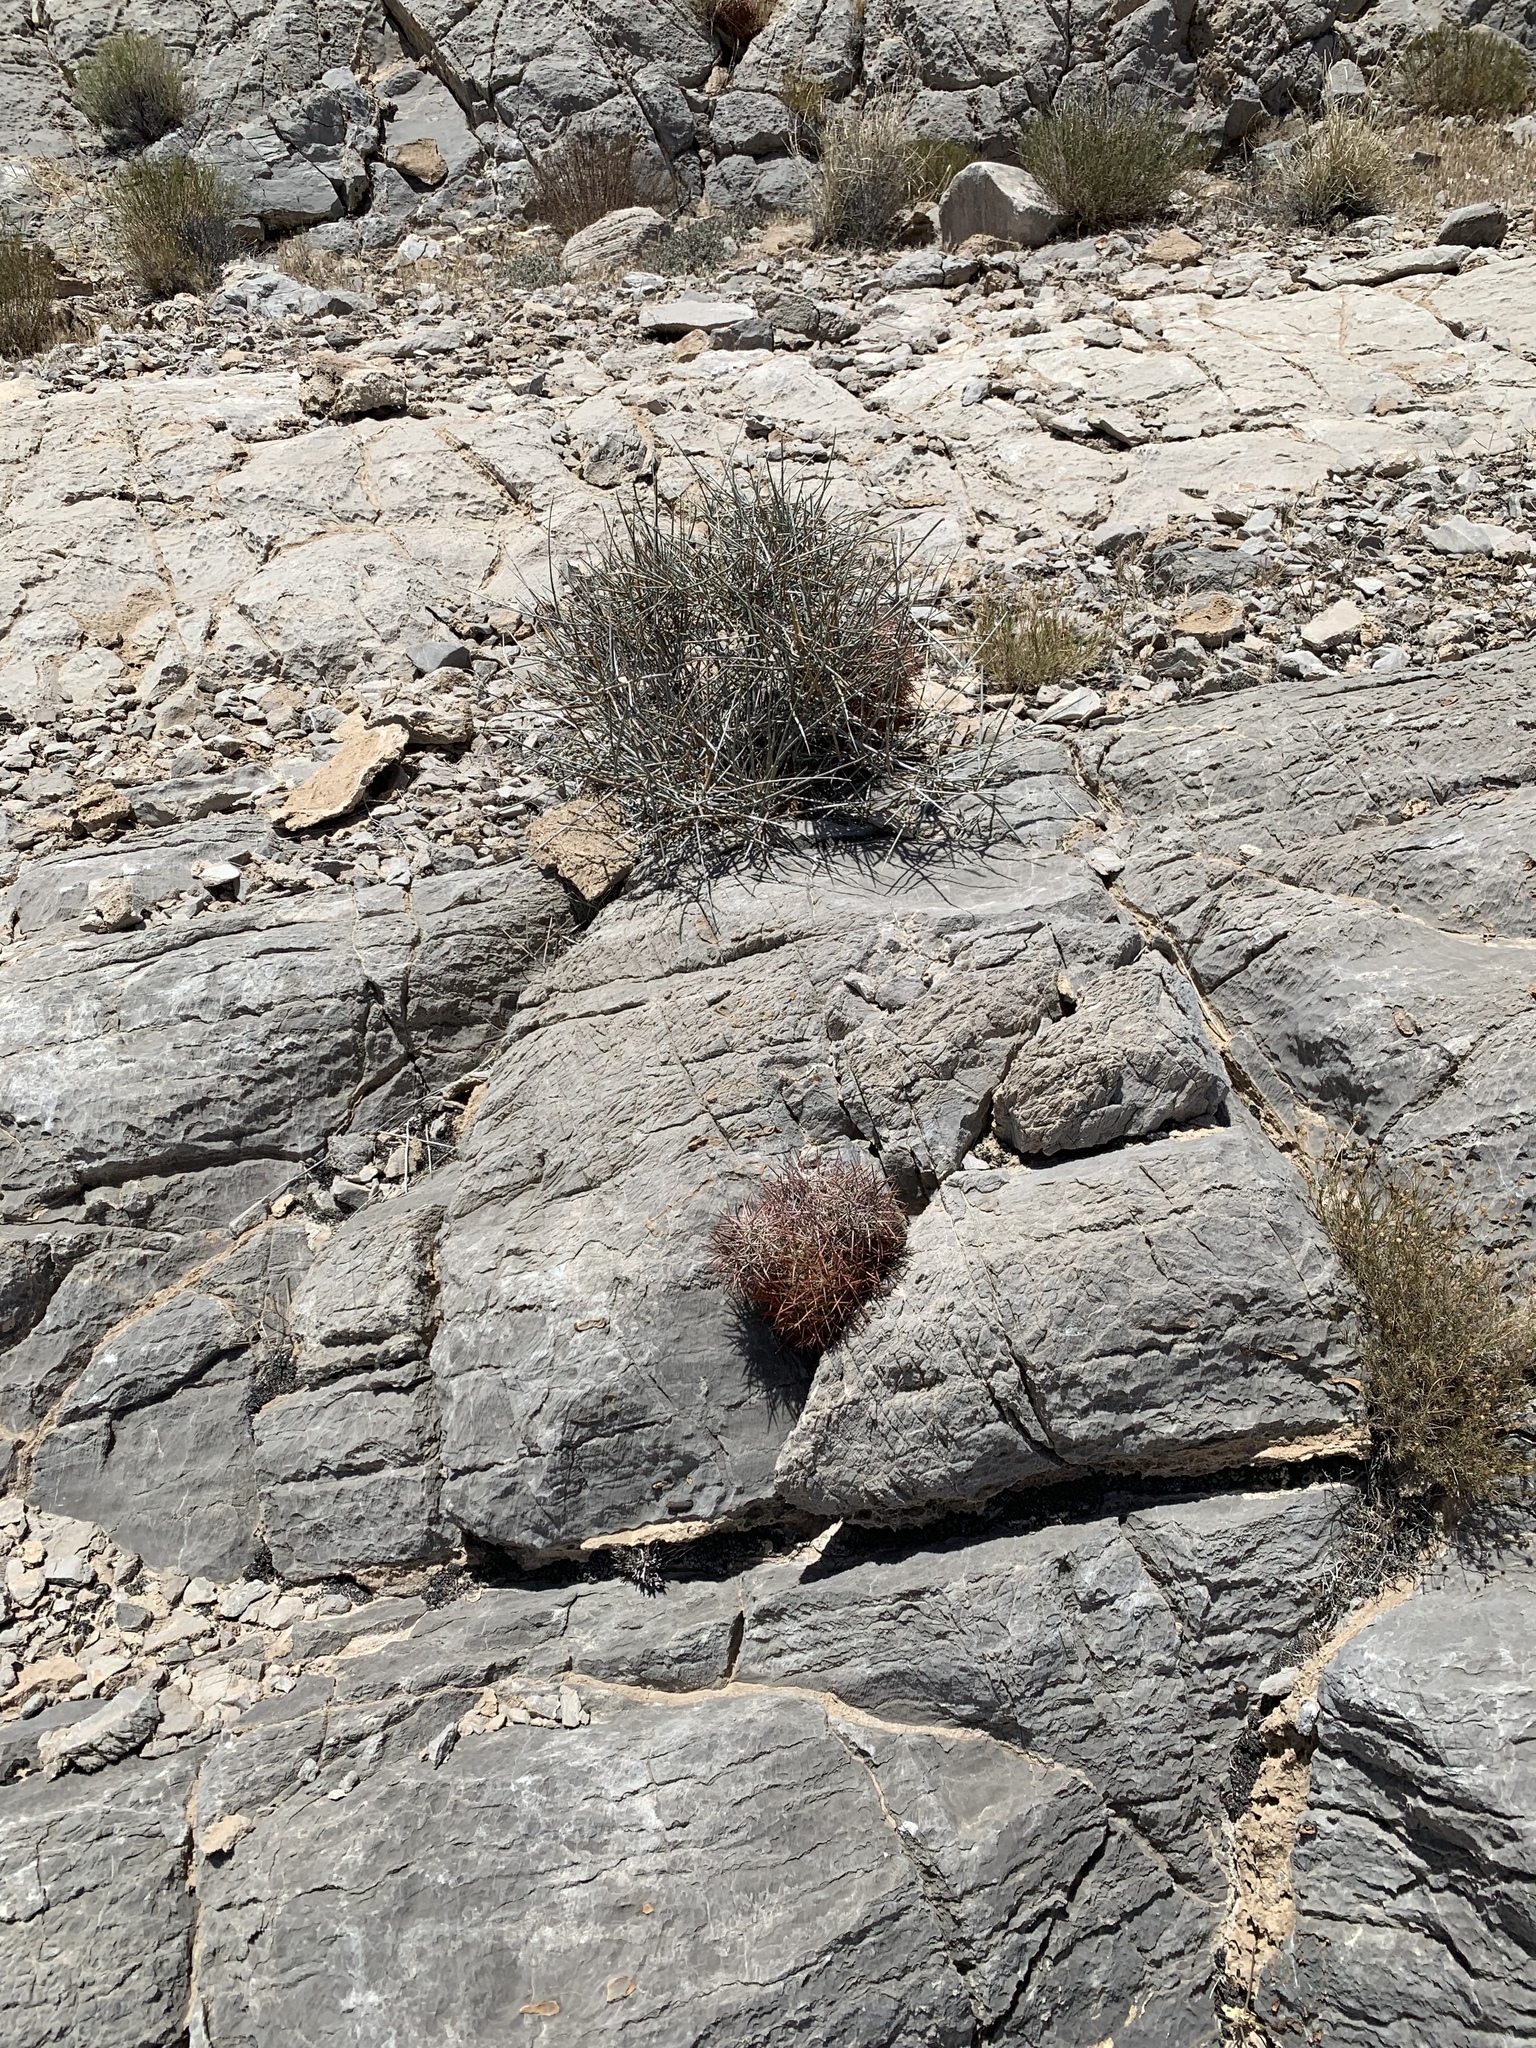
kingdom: Plantae
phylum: Tracheophyta
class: Magnoliopsida
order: Caryophyllales
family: Cactaceae
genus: Sclerocactus
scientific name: Sclerocactus johnsonii
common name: Eight-spine fishhook cactus
